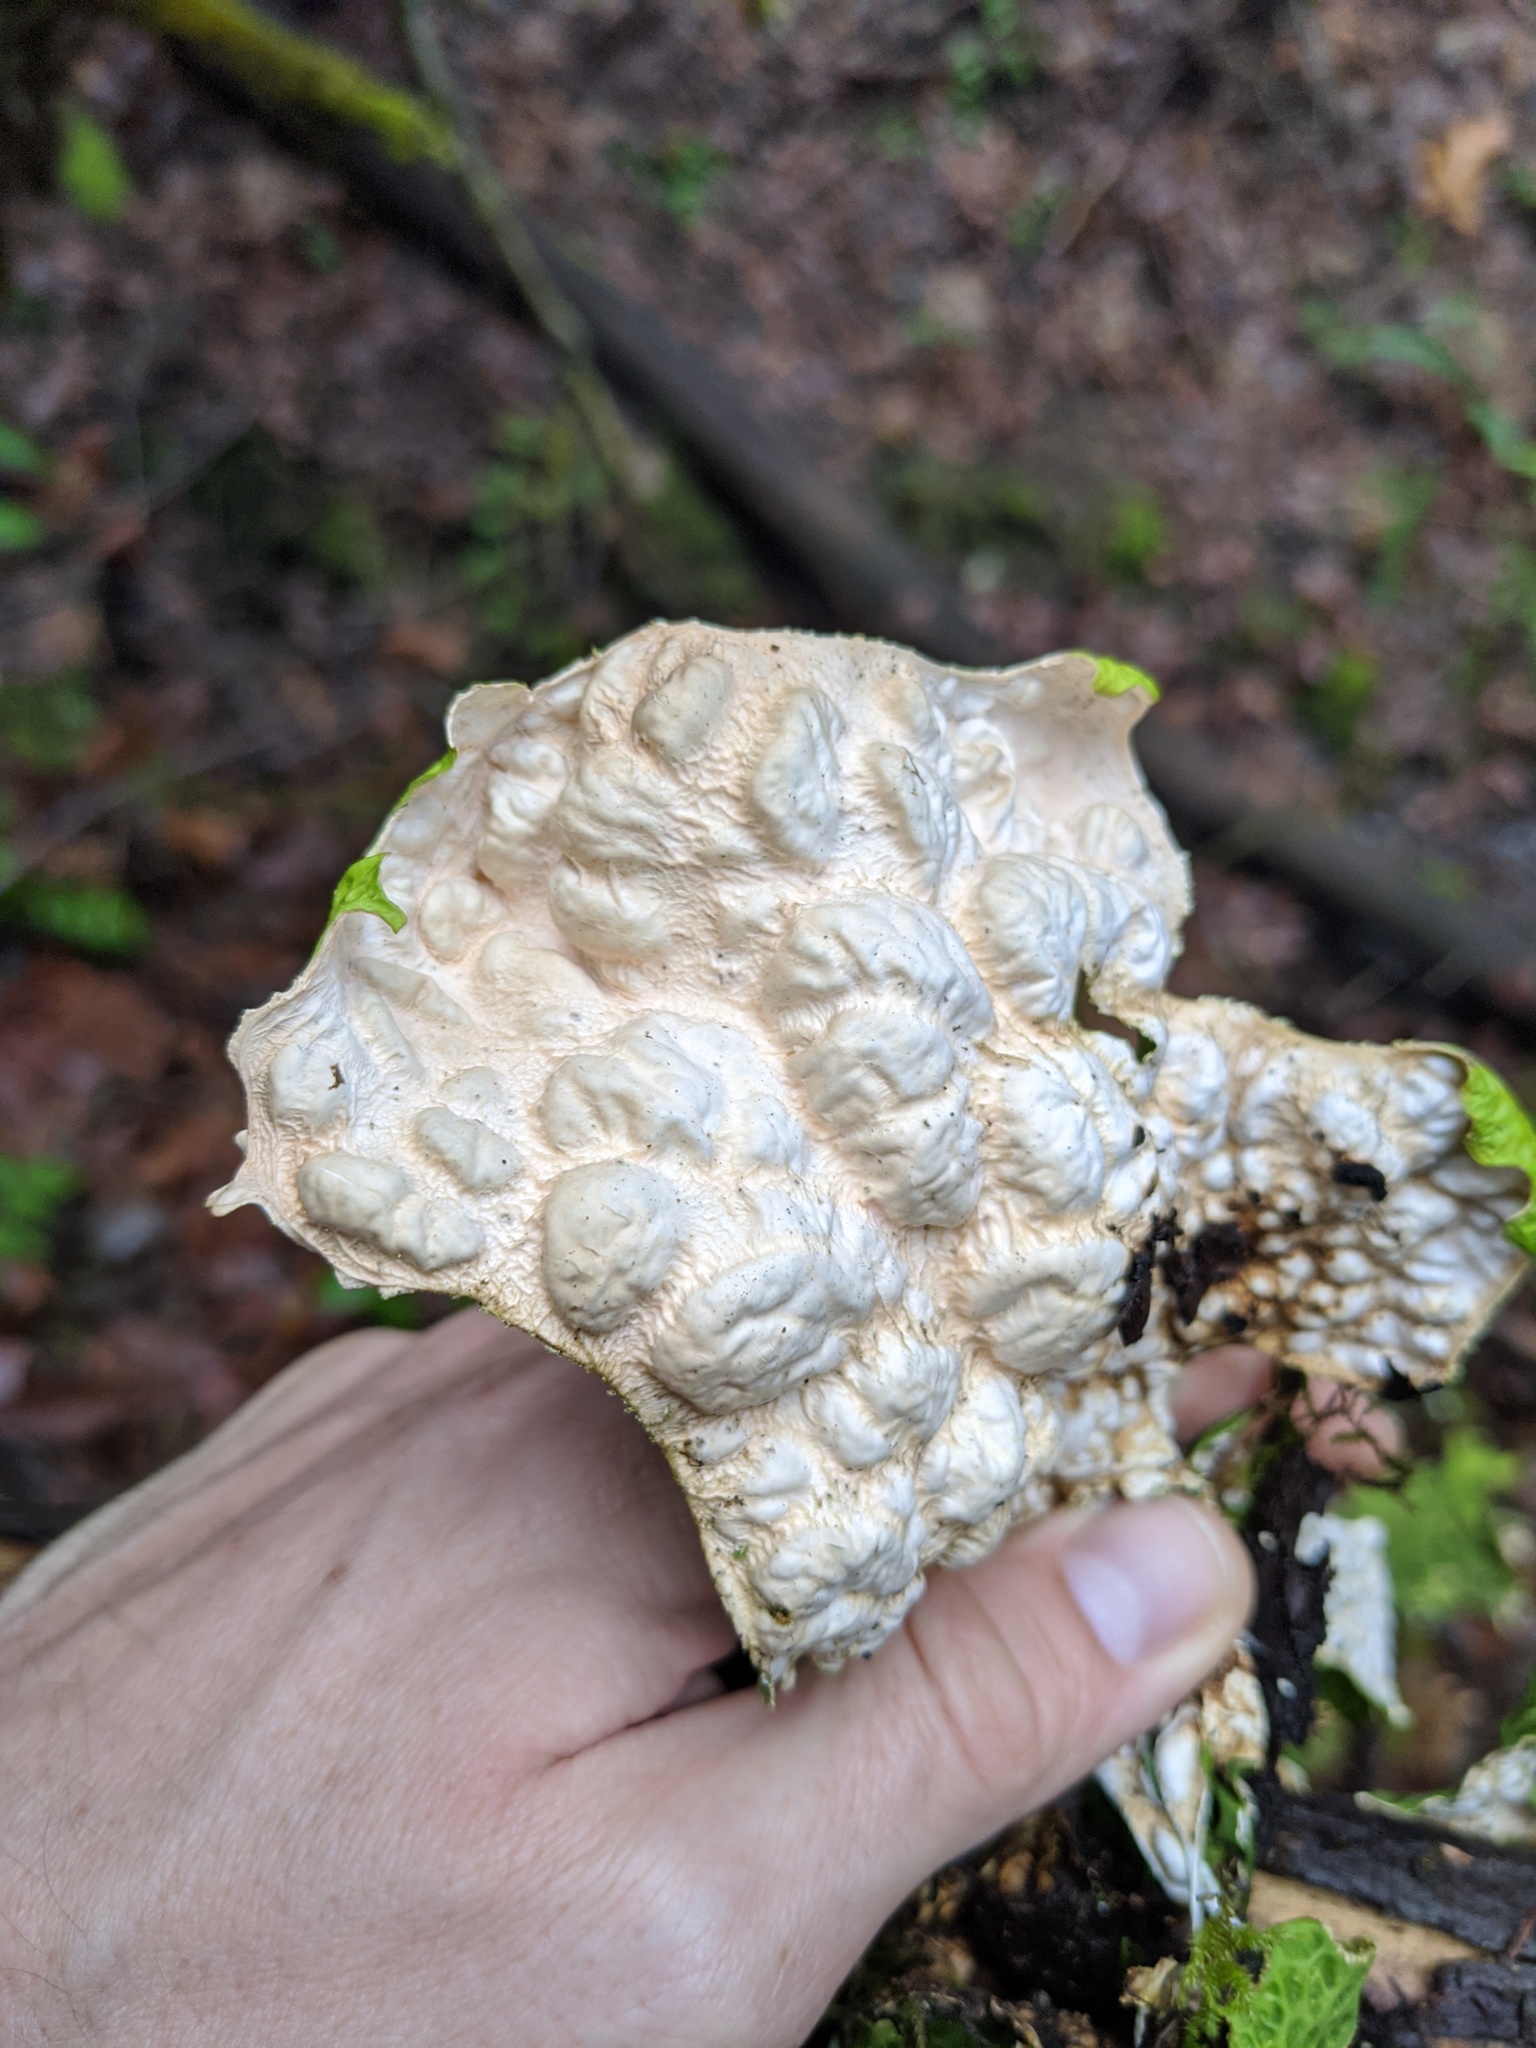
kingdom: Fungi
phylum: Ascomycota
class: Lecanoromycetes
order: Peltigerales
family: Lobariaceae
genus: Lobaria
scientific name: Lobaria pulmonaria
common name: Lungwort
